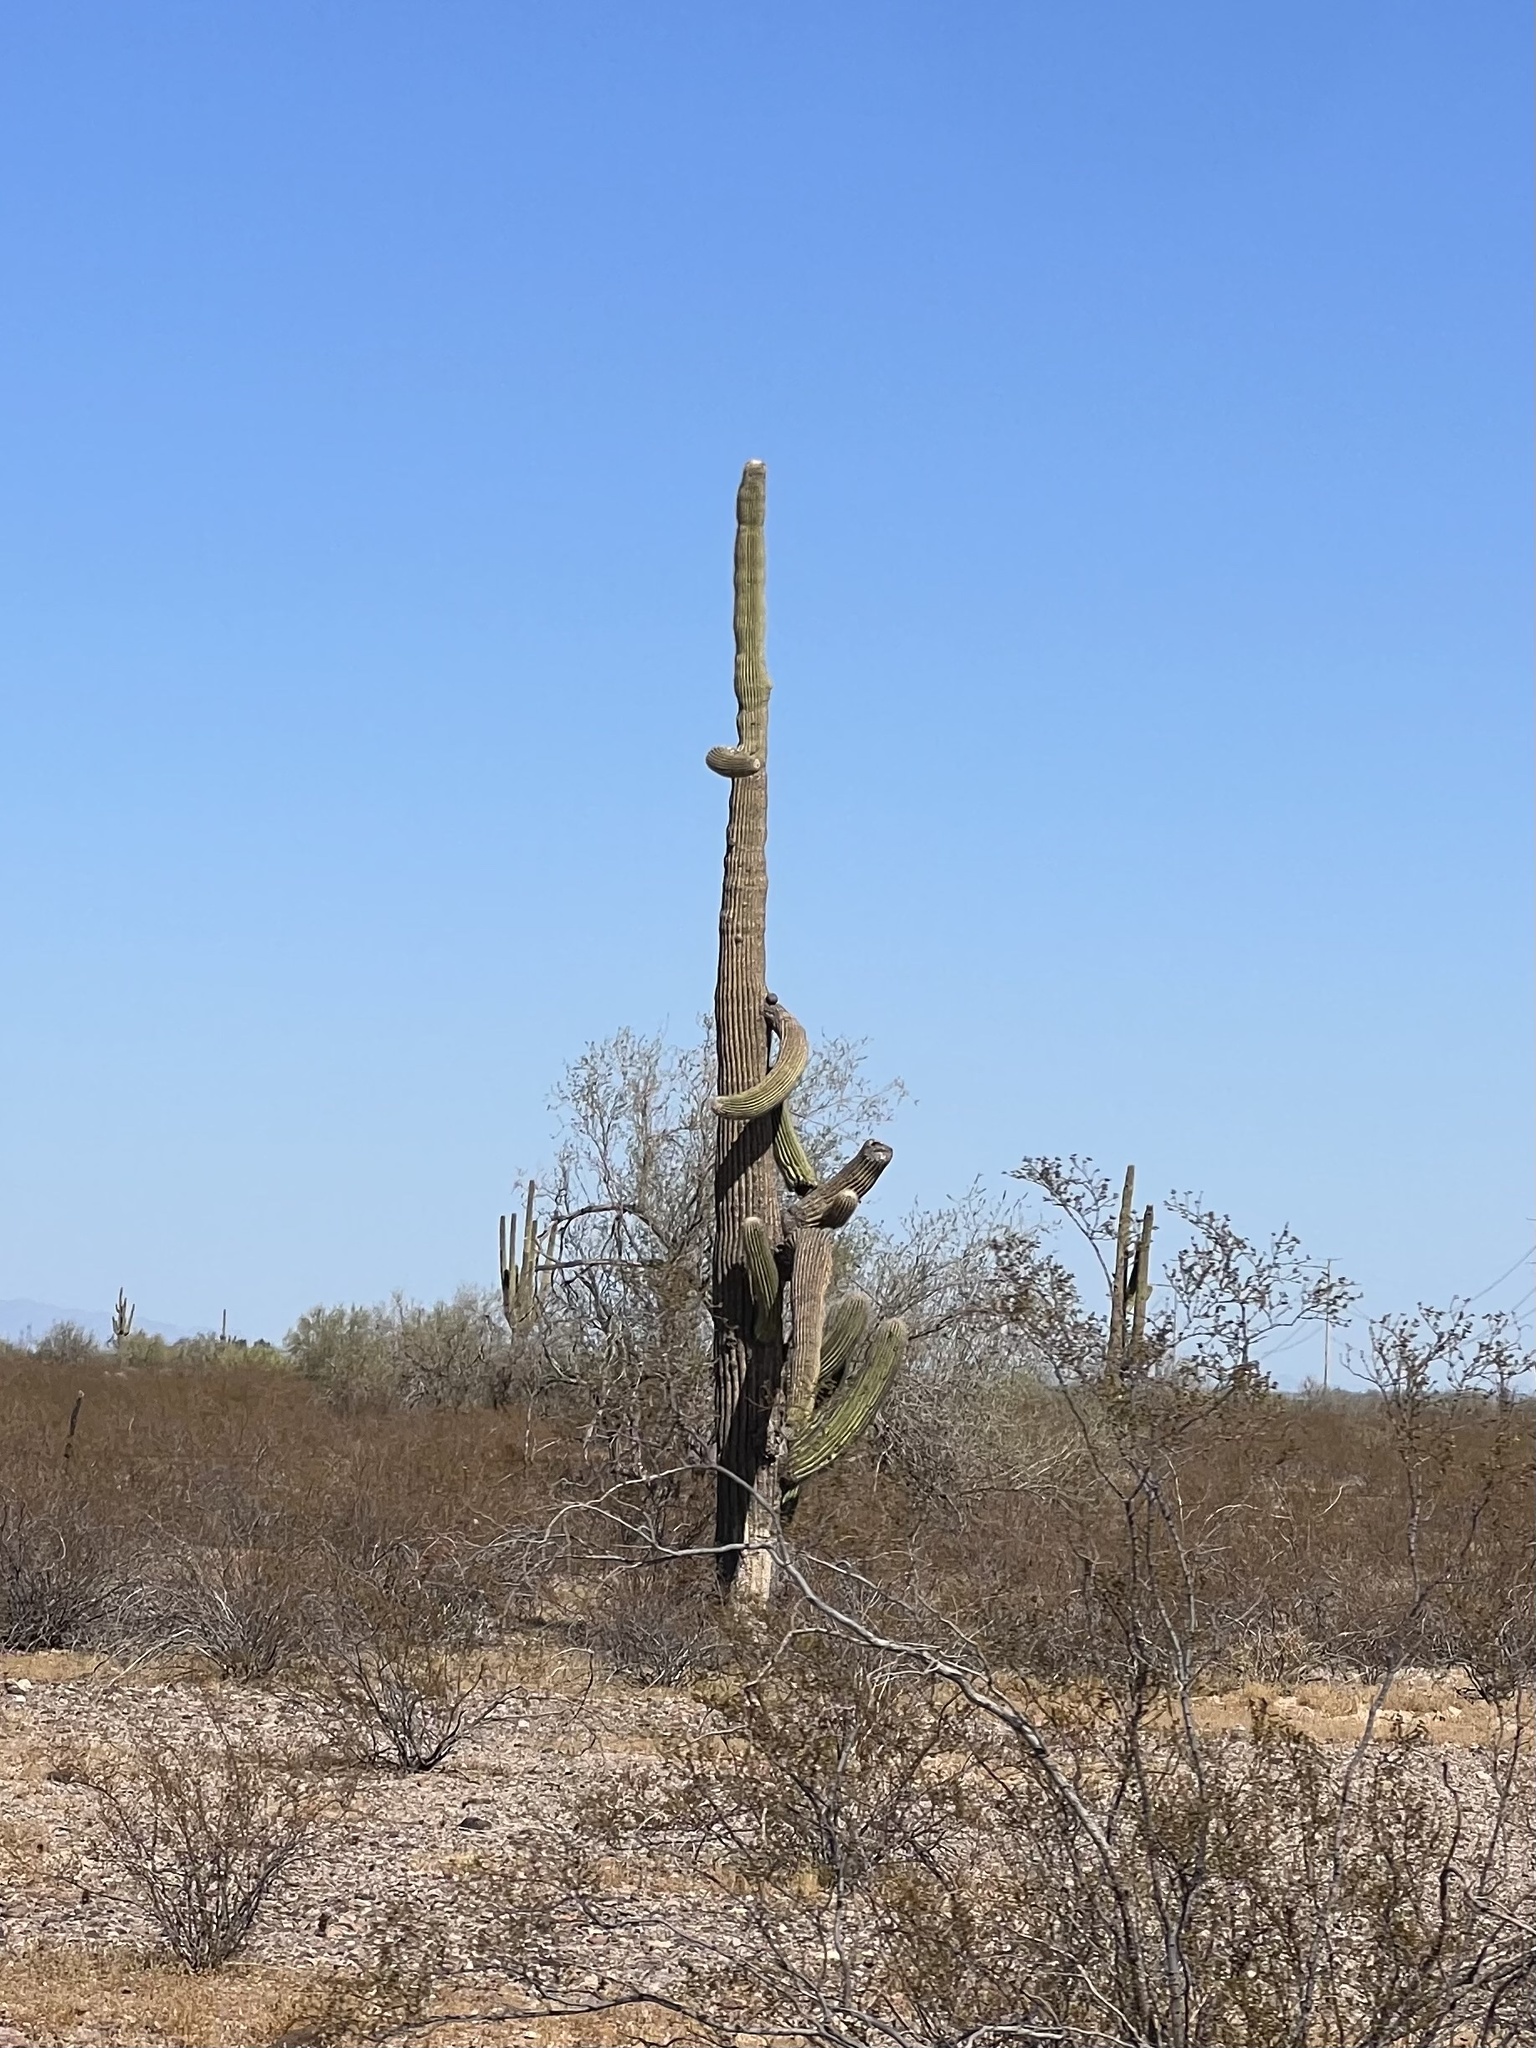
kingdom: Plantae
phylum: Tracheophyta
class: Magnoliopsida
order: Caryophyllales
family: Cactaceae
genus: Carnegiea
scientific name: Carnegiea gigantea
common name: Saguaro
